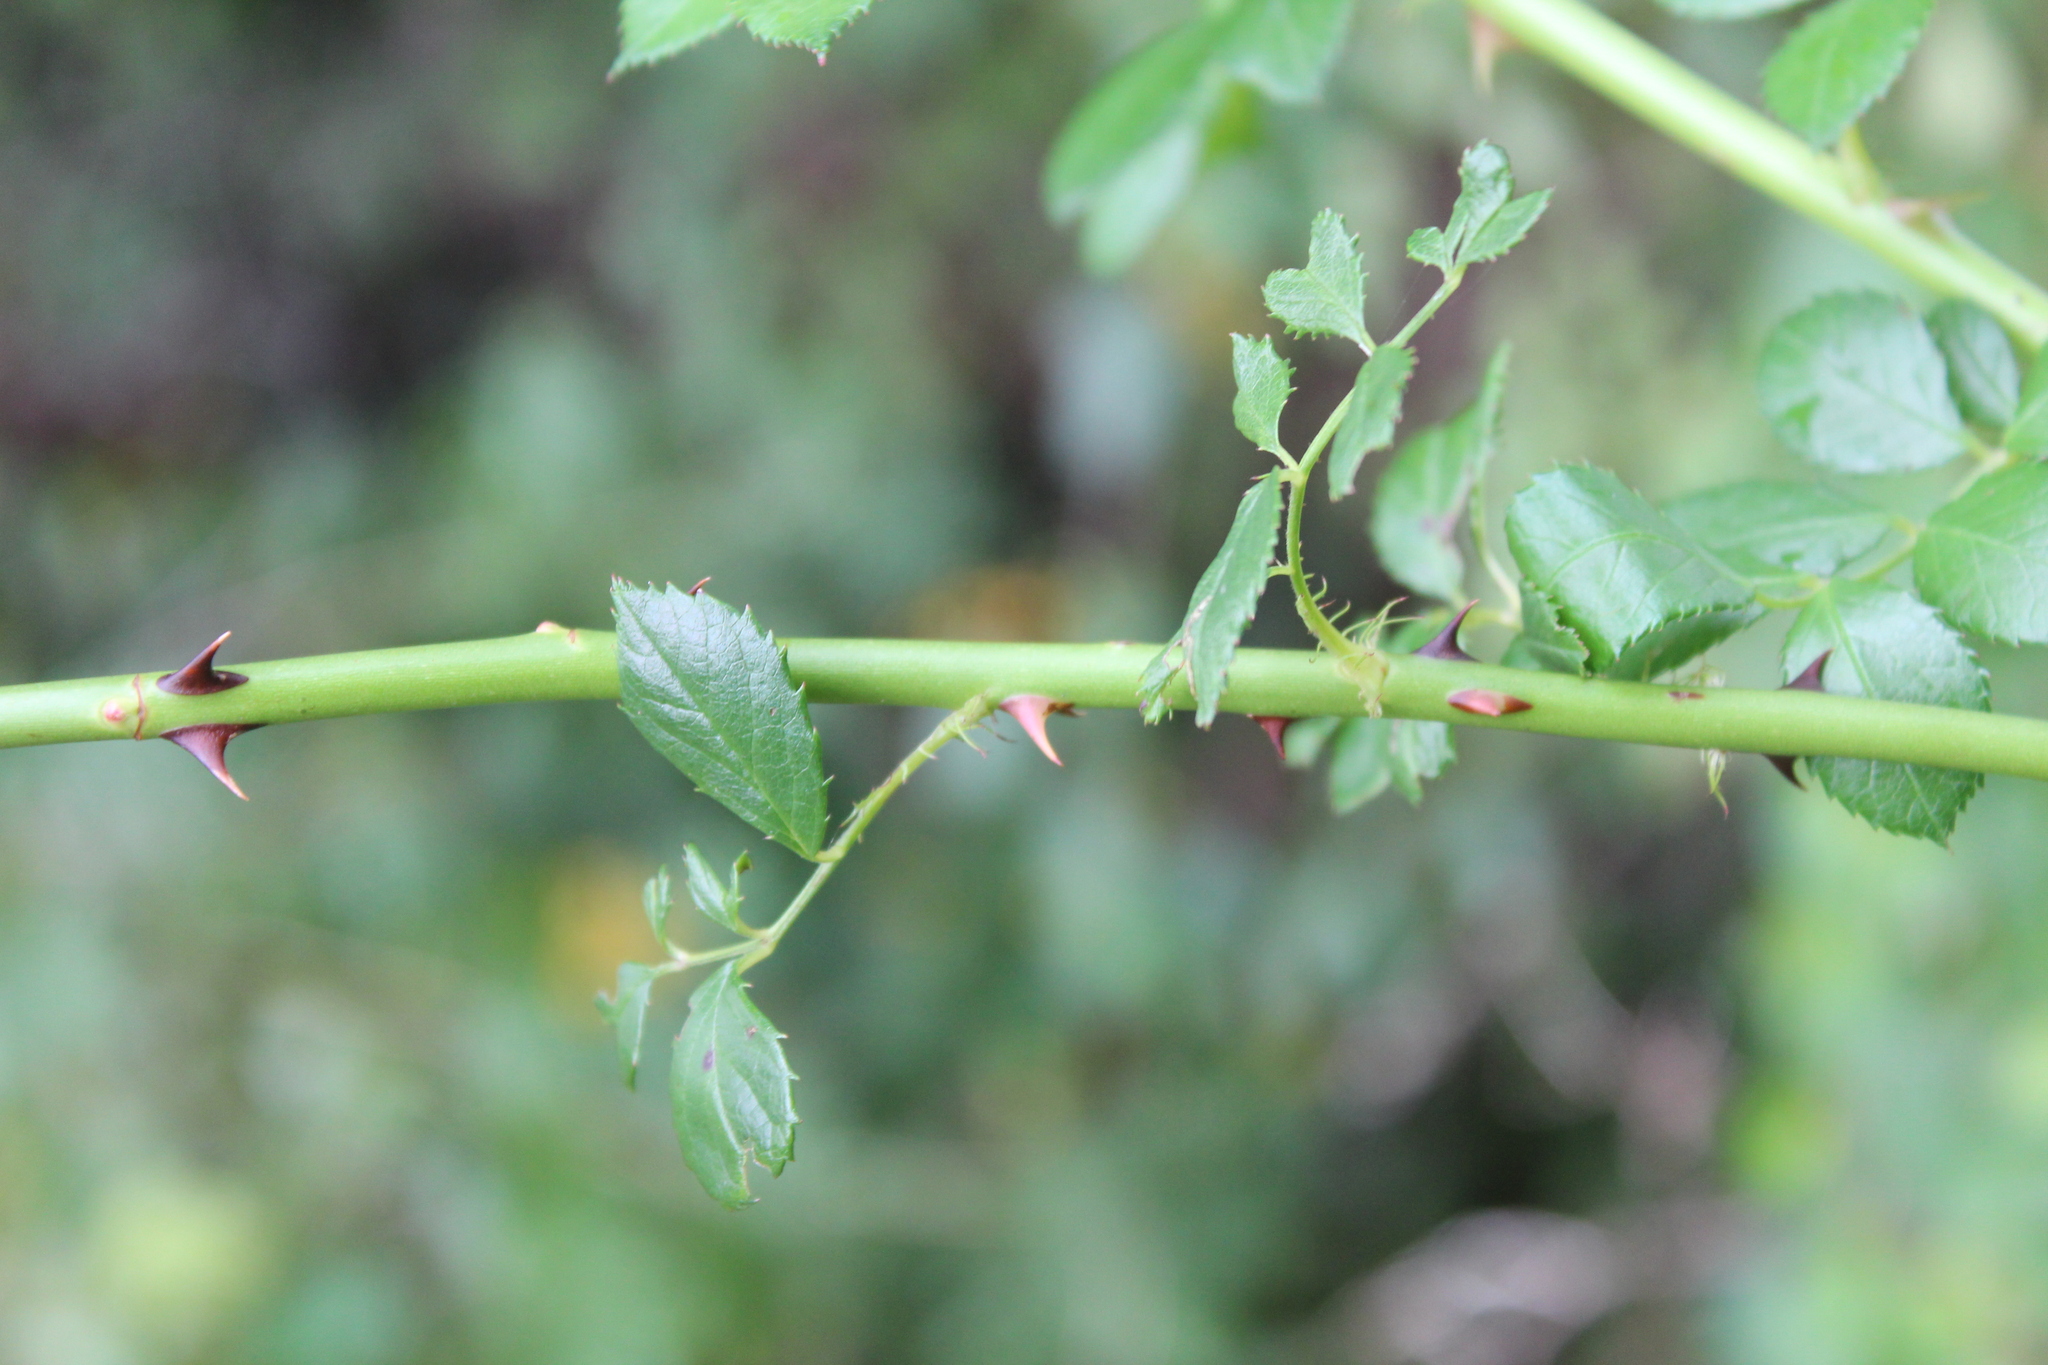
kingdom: Plantae
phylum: Tracheophyta
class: Magnoliopsida
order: Rosales
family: Rosaceae
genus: Rosa
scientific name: Rosa multiflora
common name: Multiflora rose
